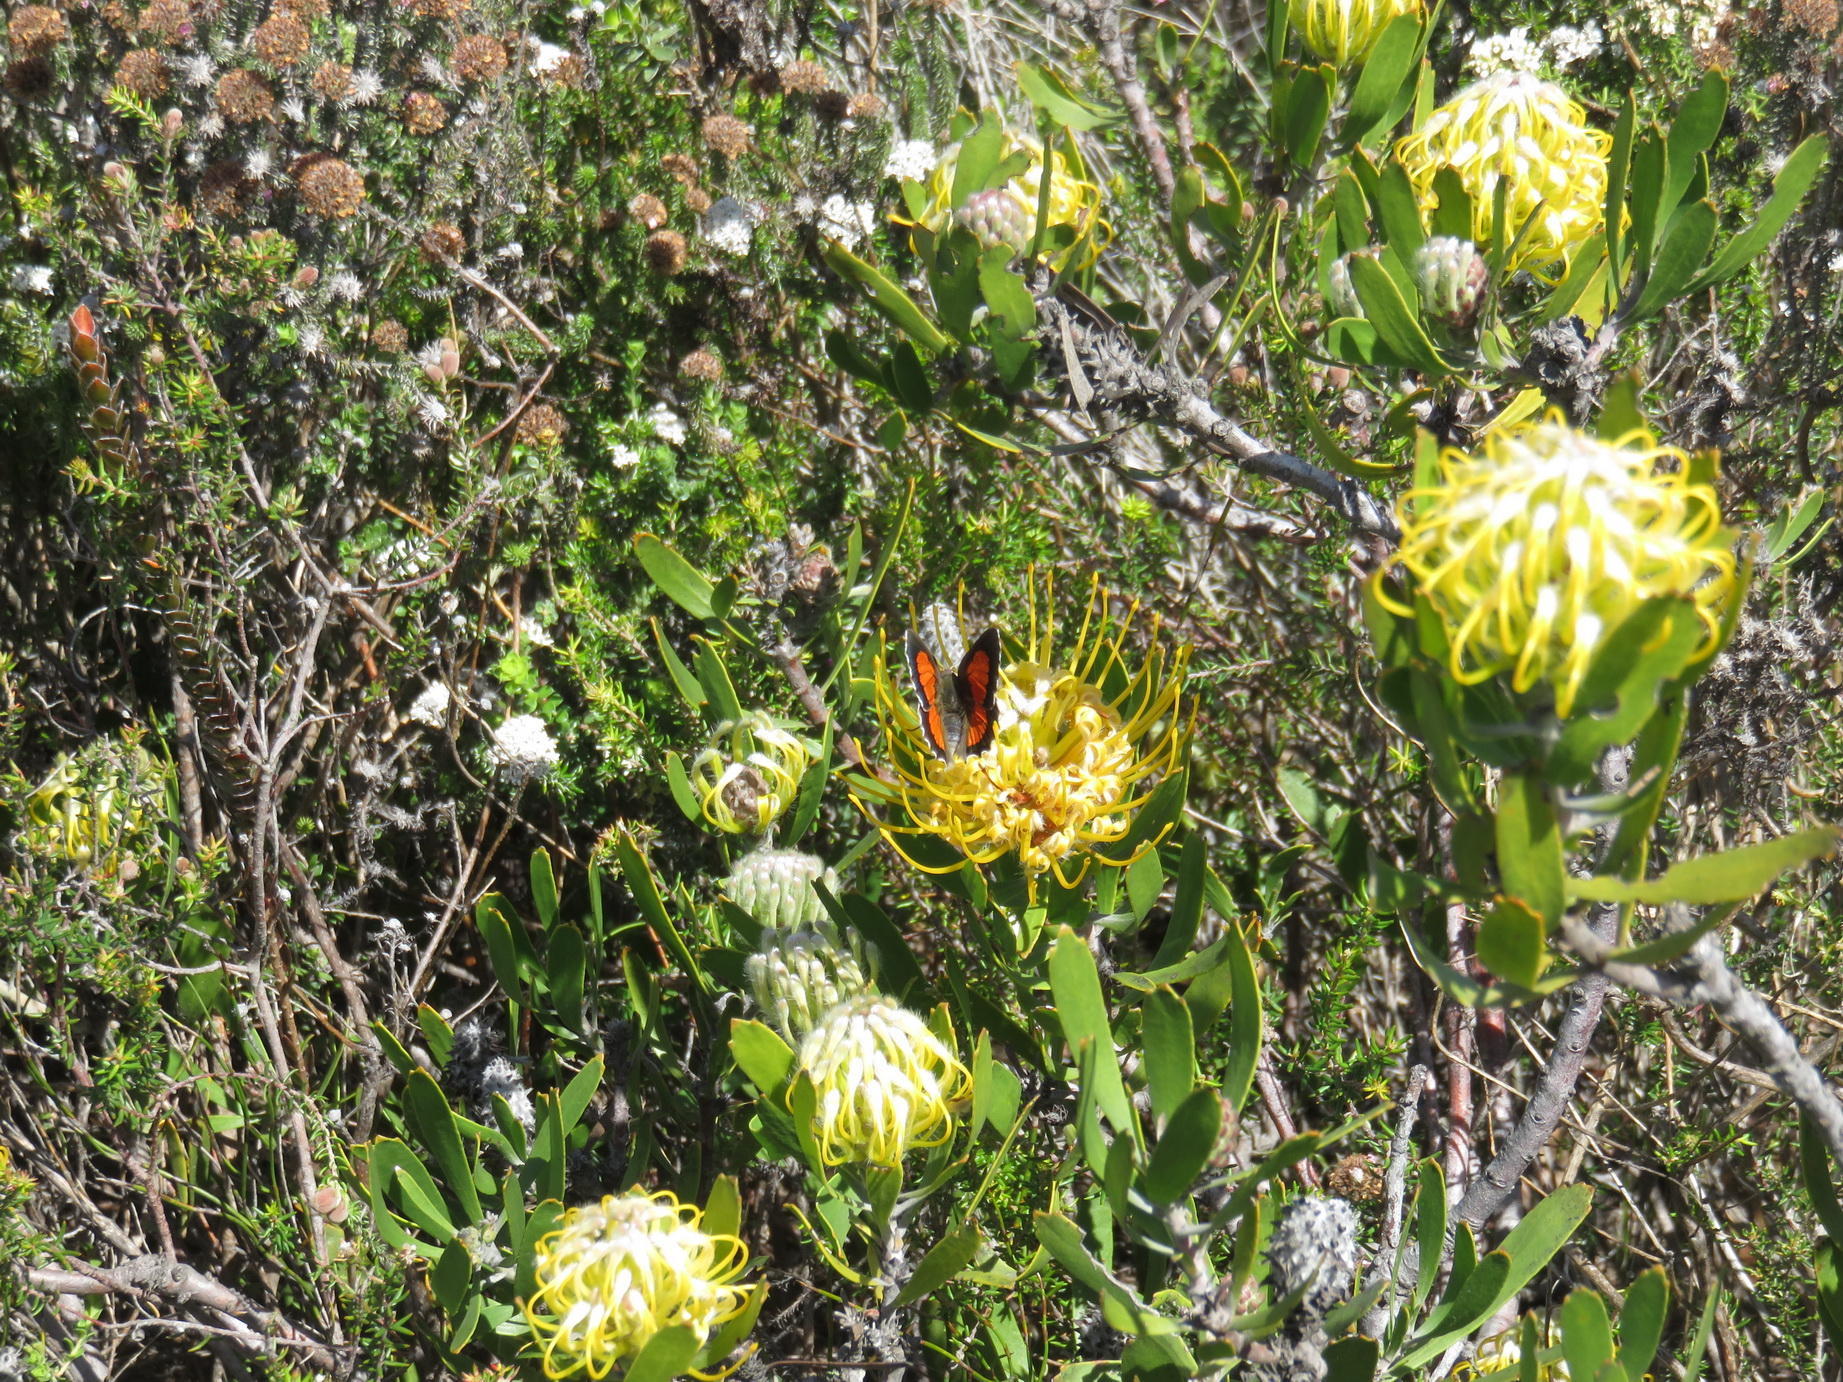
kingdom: Plantae
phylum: Tracheophyta
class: Magnoliopsida
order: Proteales
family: Proteaceae
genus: Leucospermum
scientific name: Leucospermum cuneiforme
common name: Common pincushion
